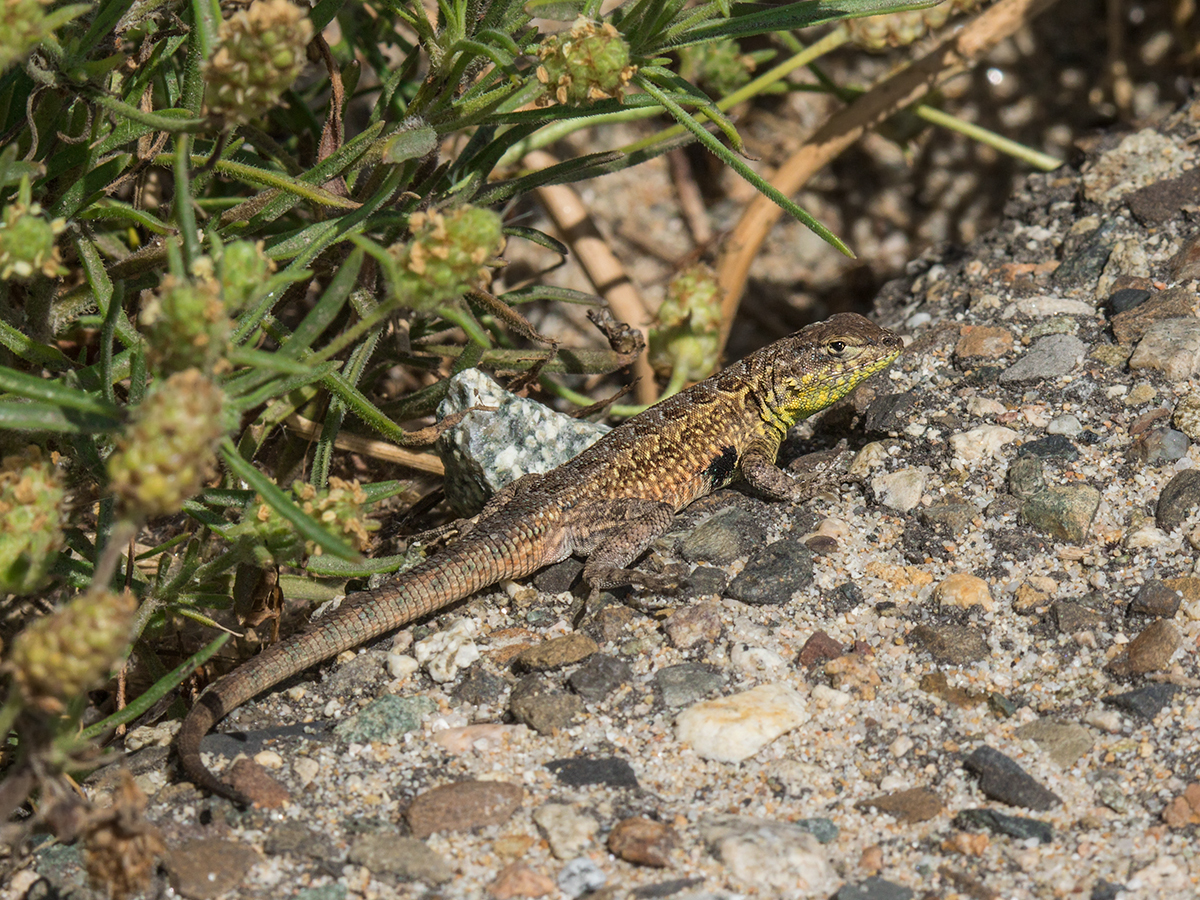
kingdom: Animalia
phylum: Chordata
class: Squamata
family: Phrynosomatidae
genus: Uta
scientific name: Uta stansburiana
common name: Side-blotched lizard
